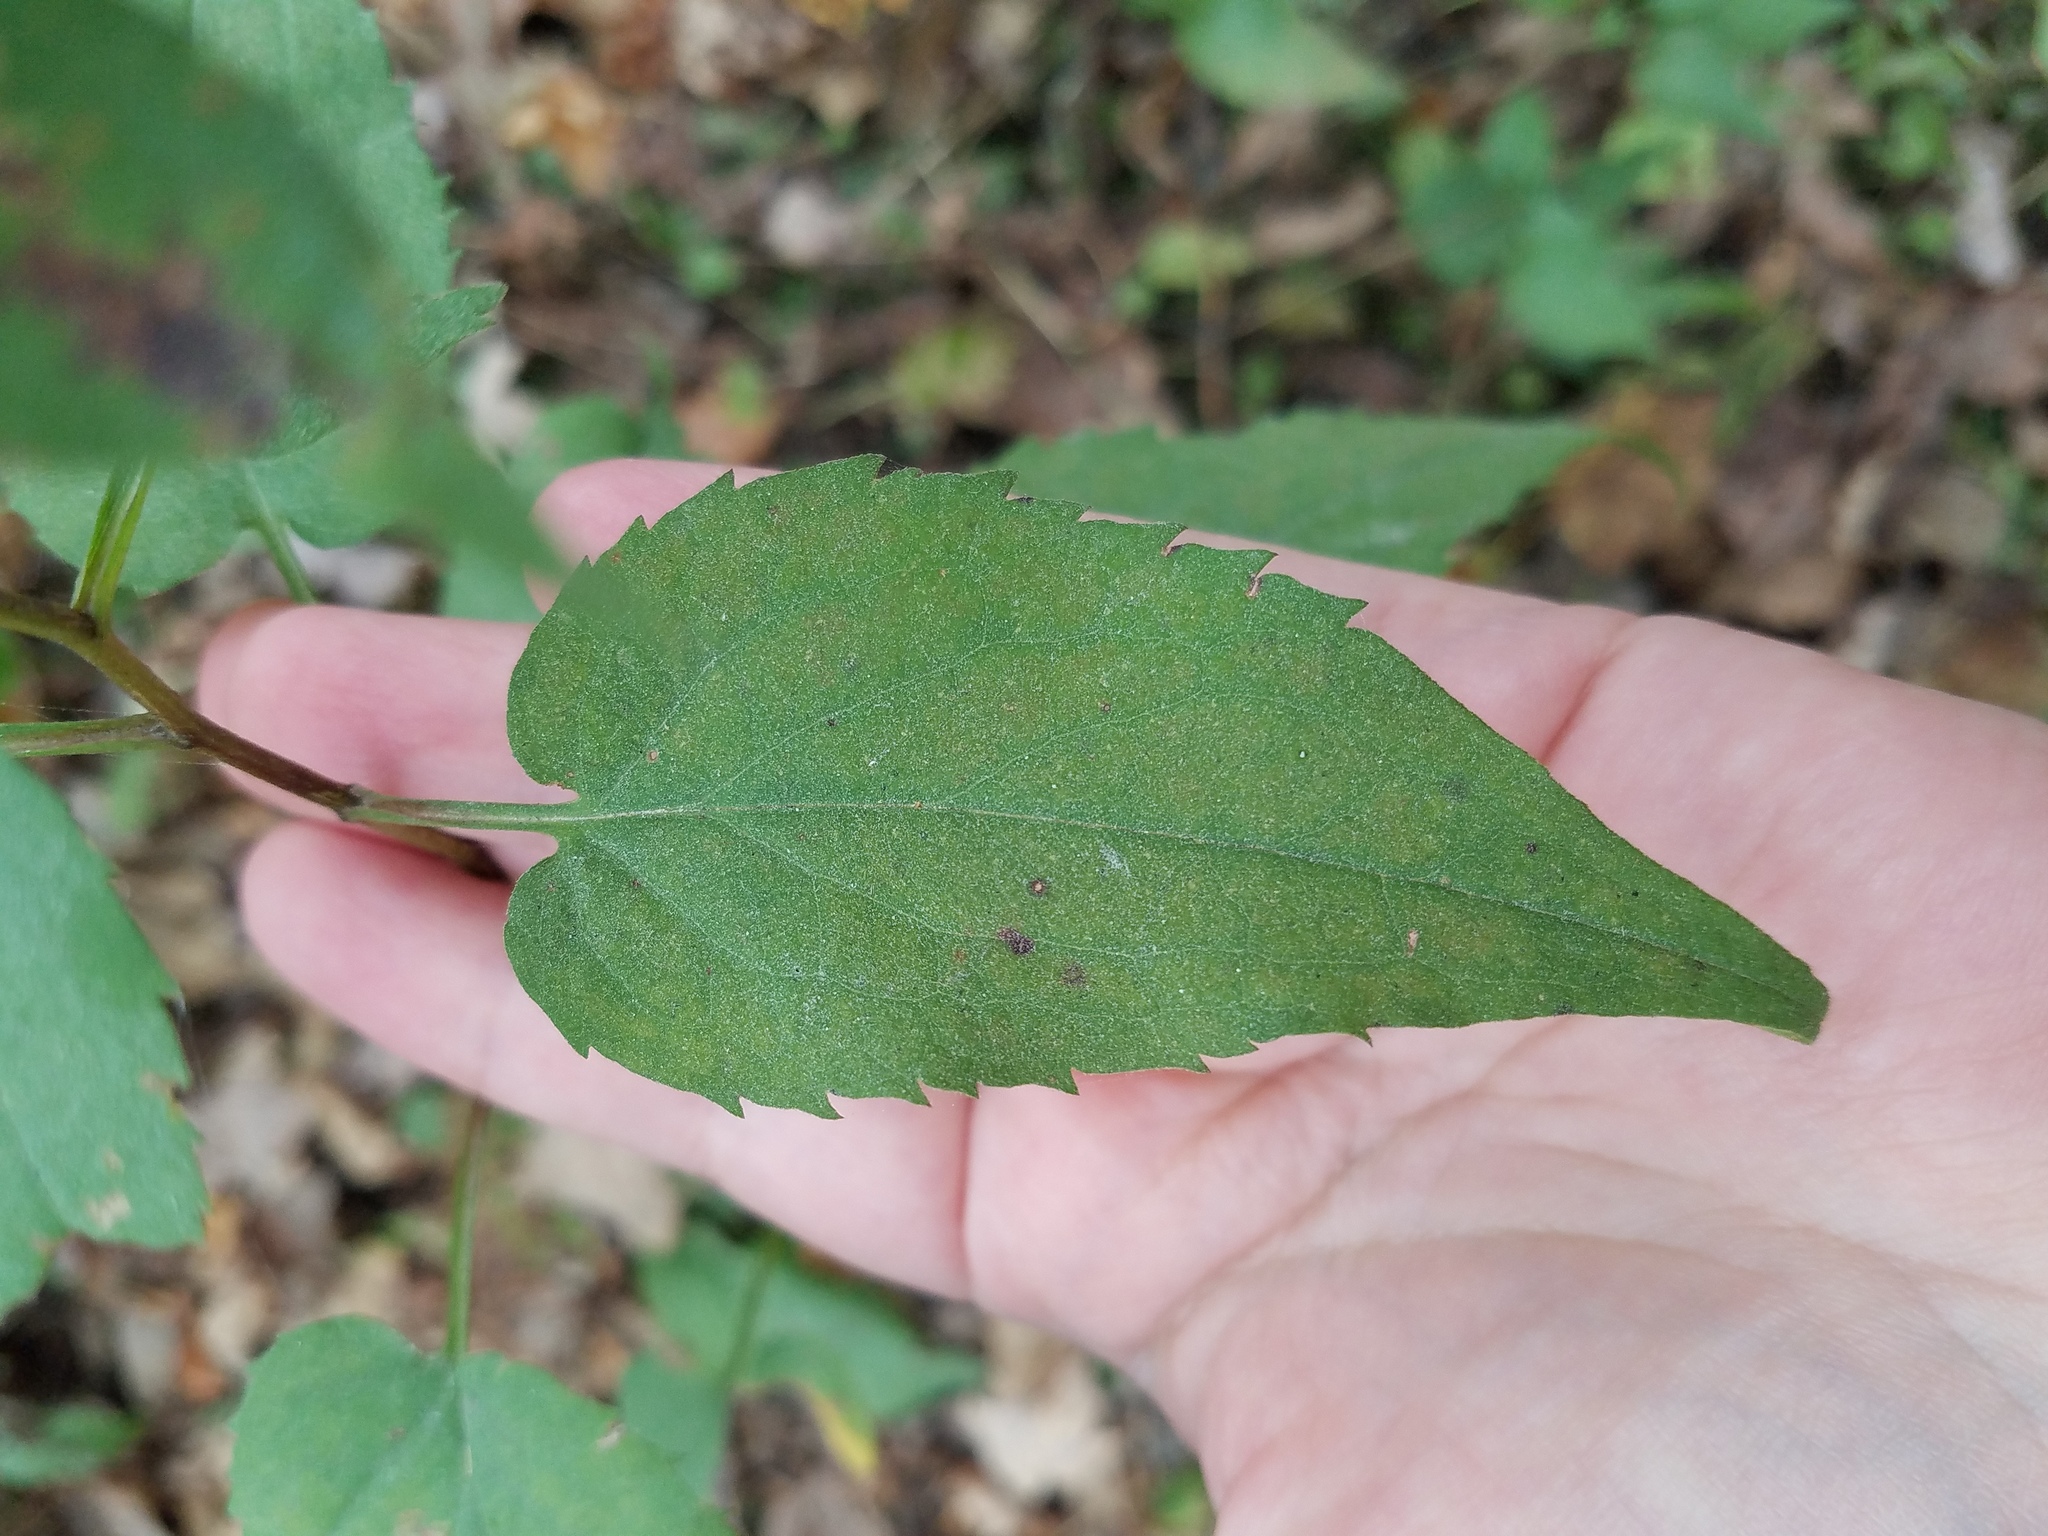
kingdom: Plantae
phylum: Tracheophyta
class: Magnoliopsida
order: Asterales
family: Asteraceae
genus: Symphyotrichum
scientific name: Symphyotrichum cordifolium
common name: Beeweed
